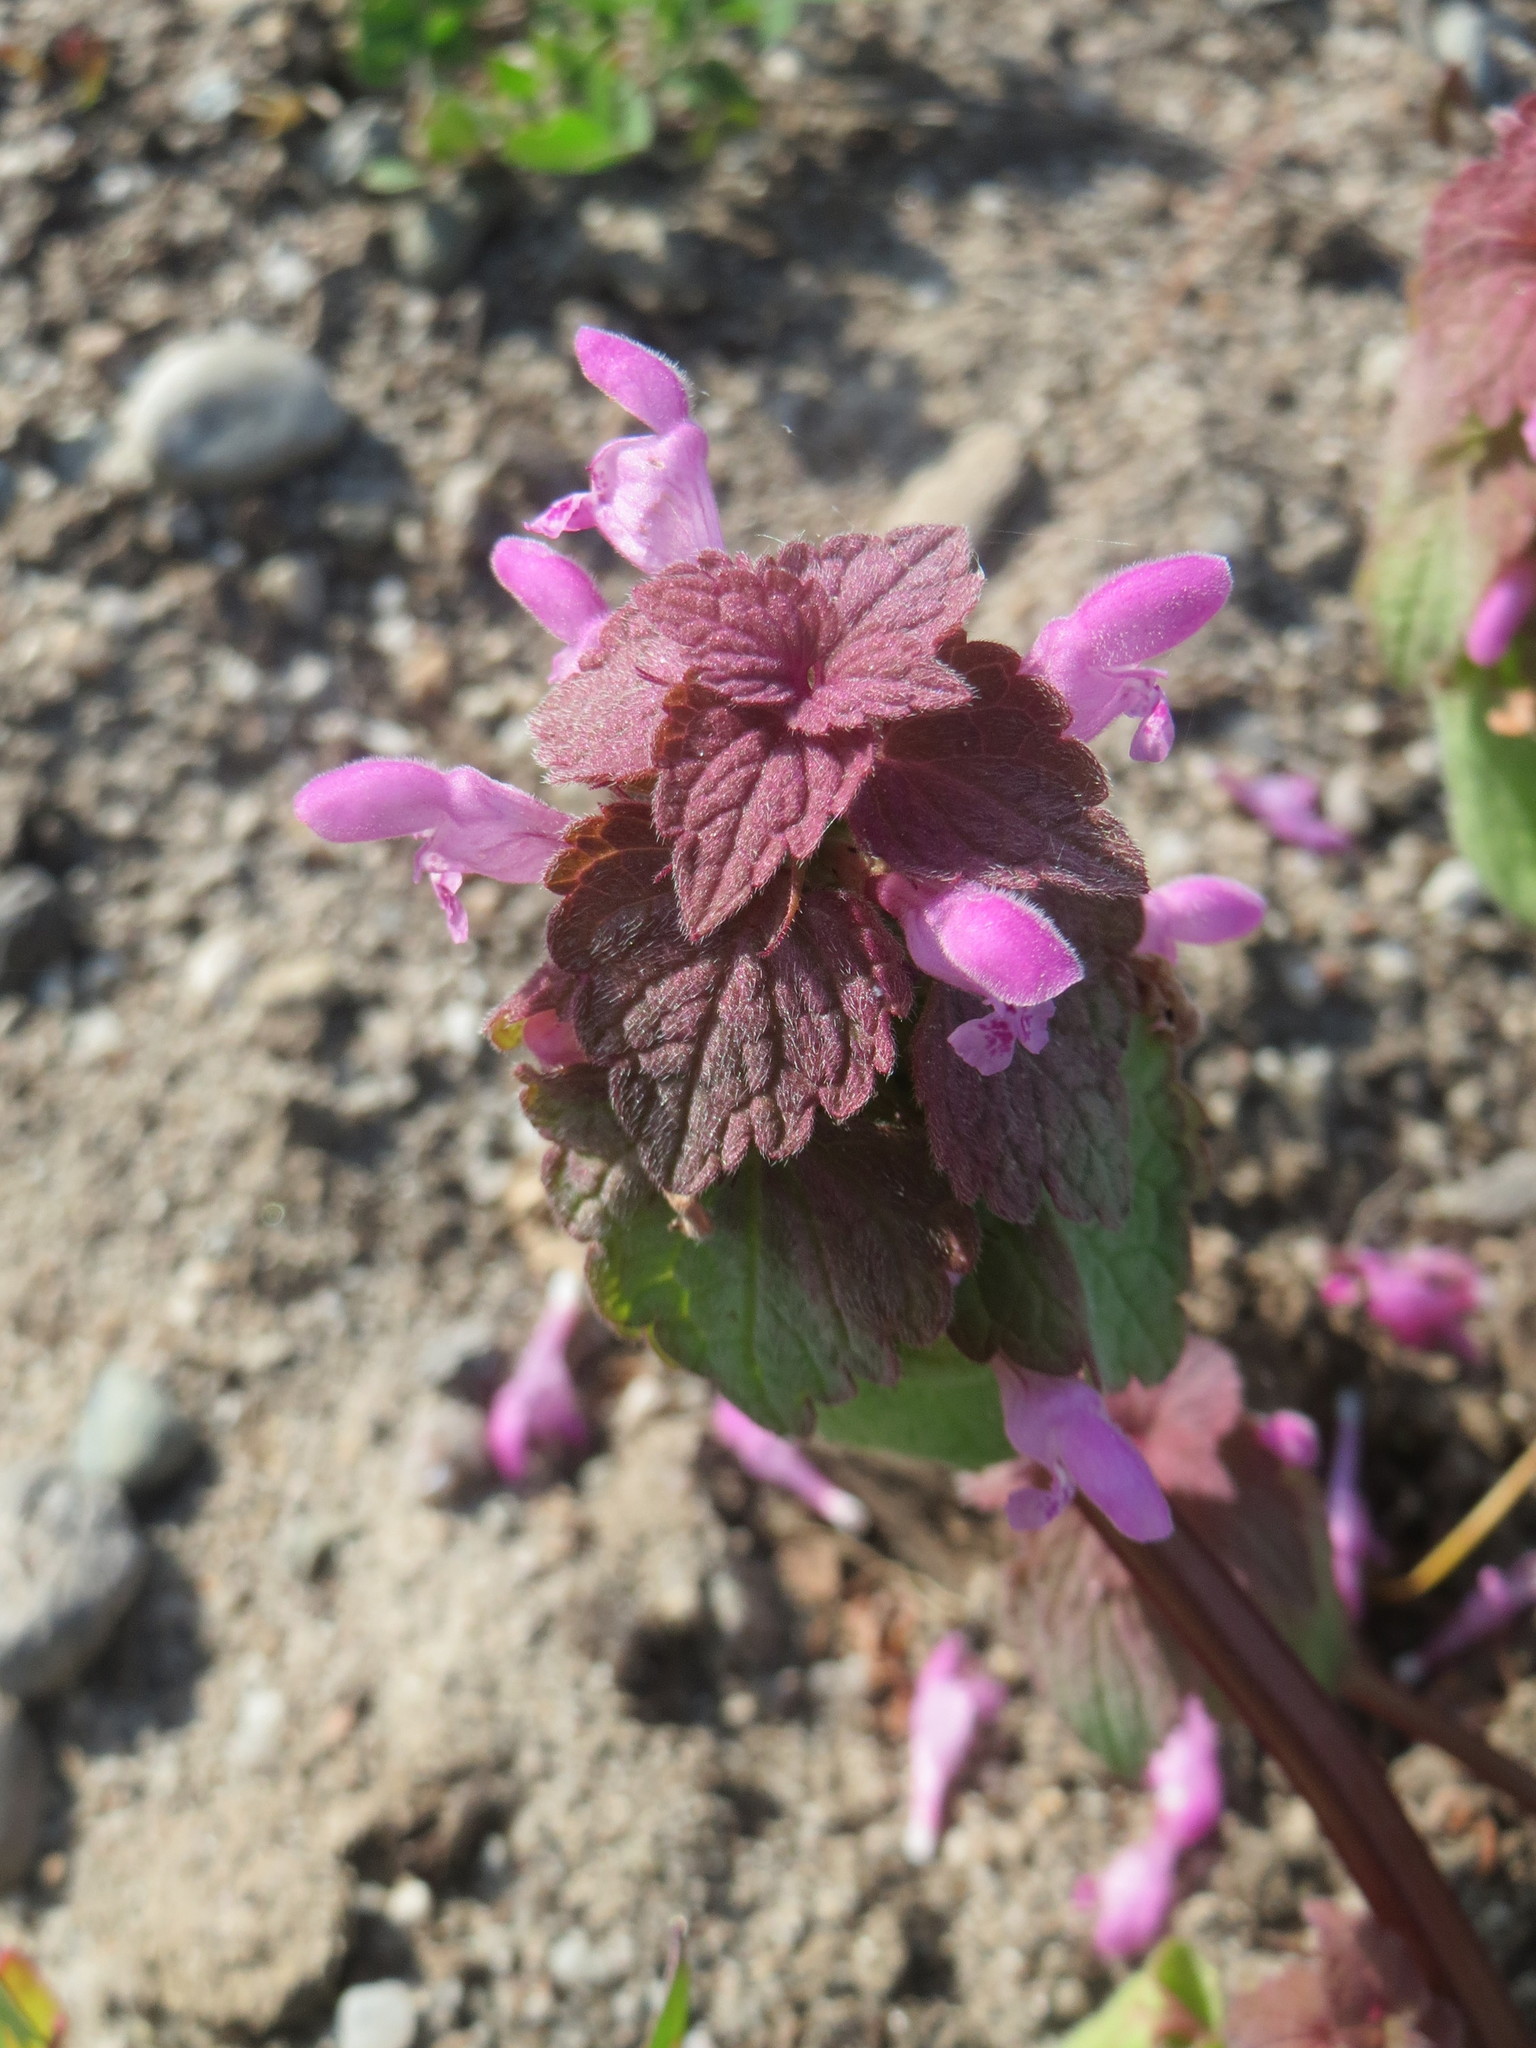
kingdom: Plantae
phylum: Tracheophyta
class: Magnoliopsida
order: Lamiales
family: Lamiaceae
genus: Lamium
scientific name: Lamium purpureum
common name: Red dead-nettle
